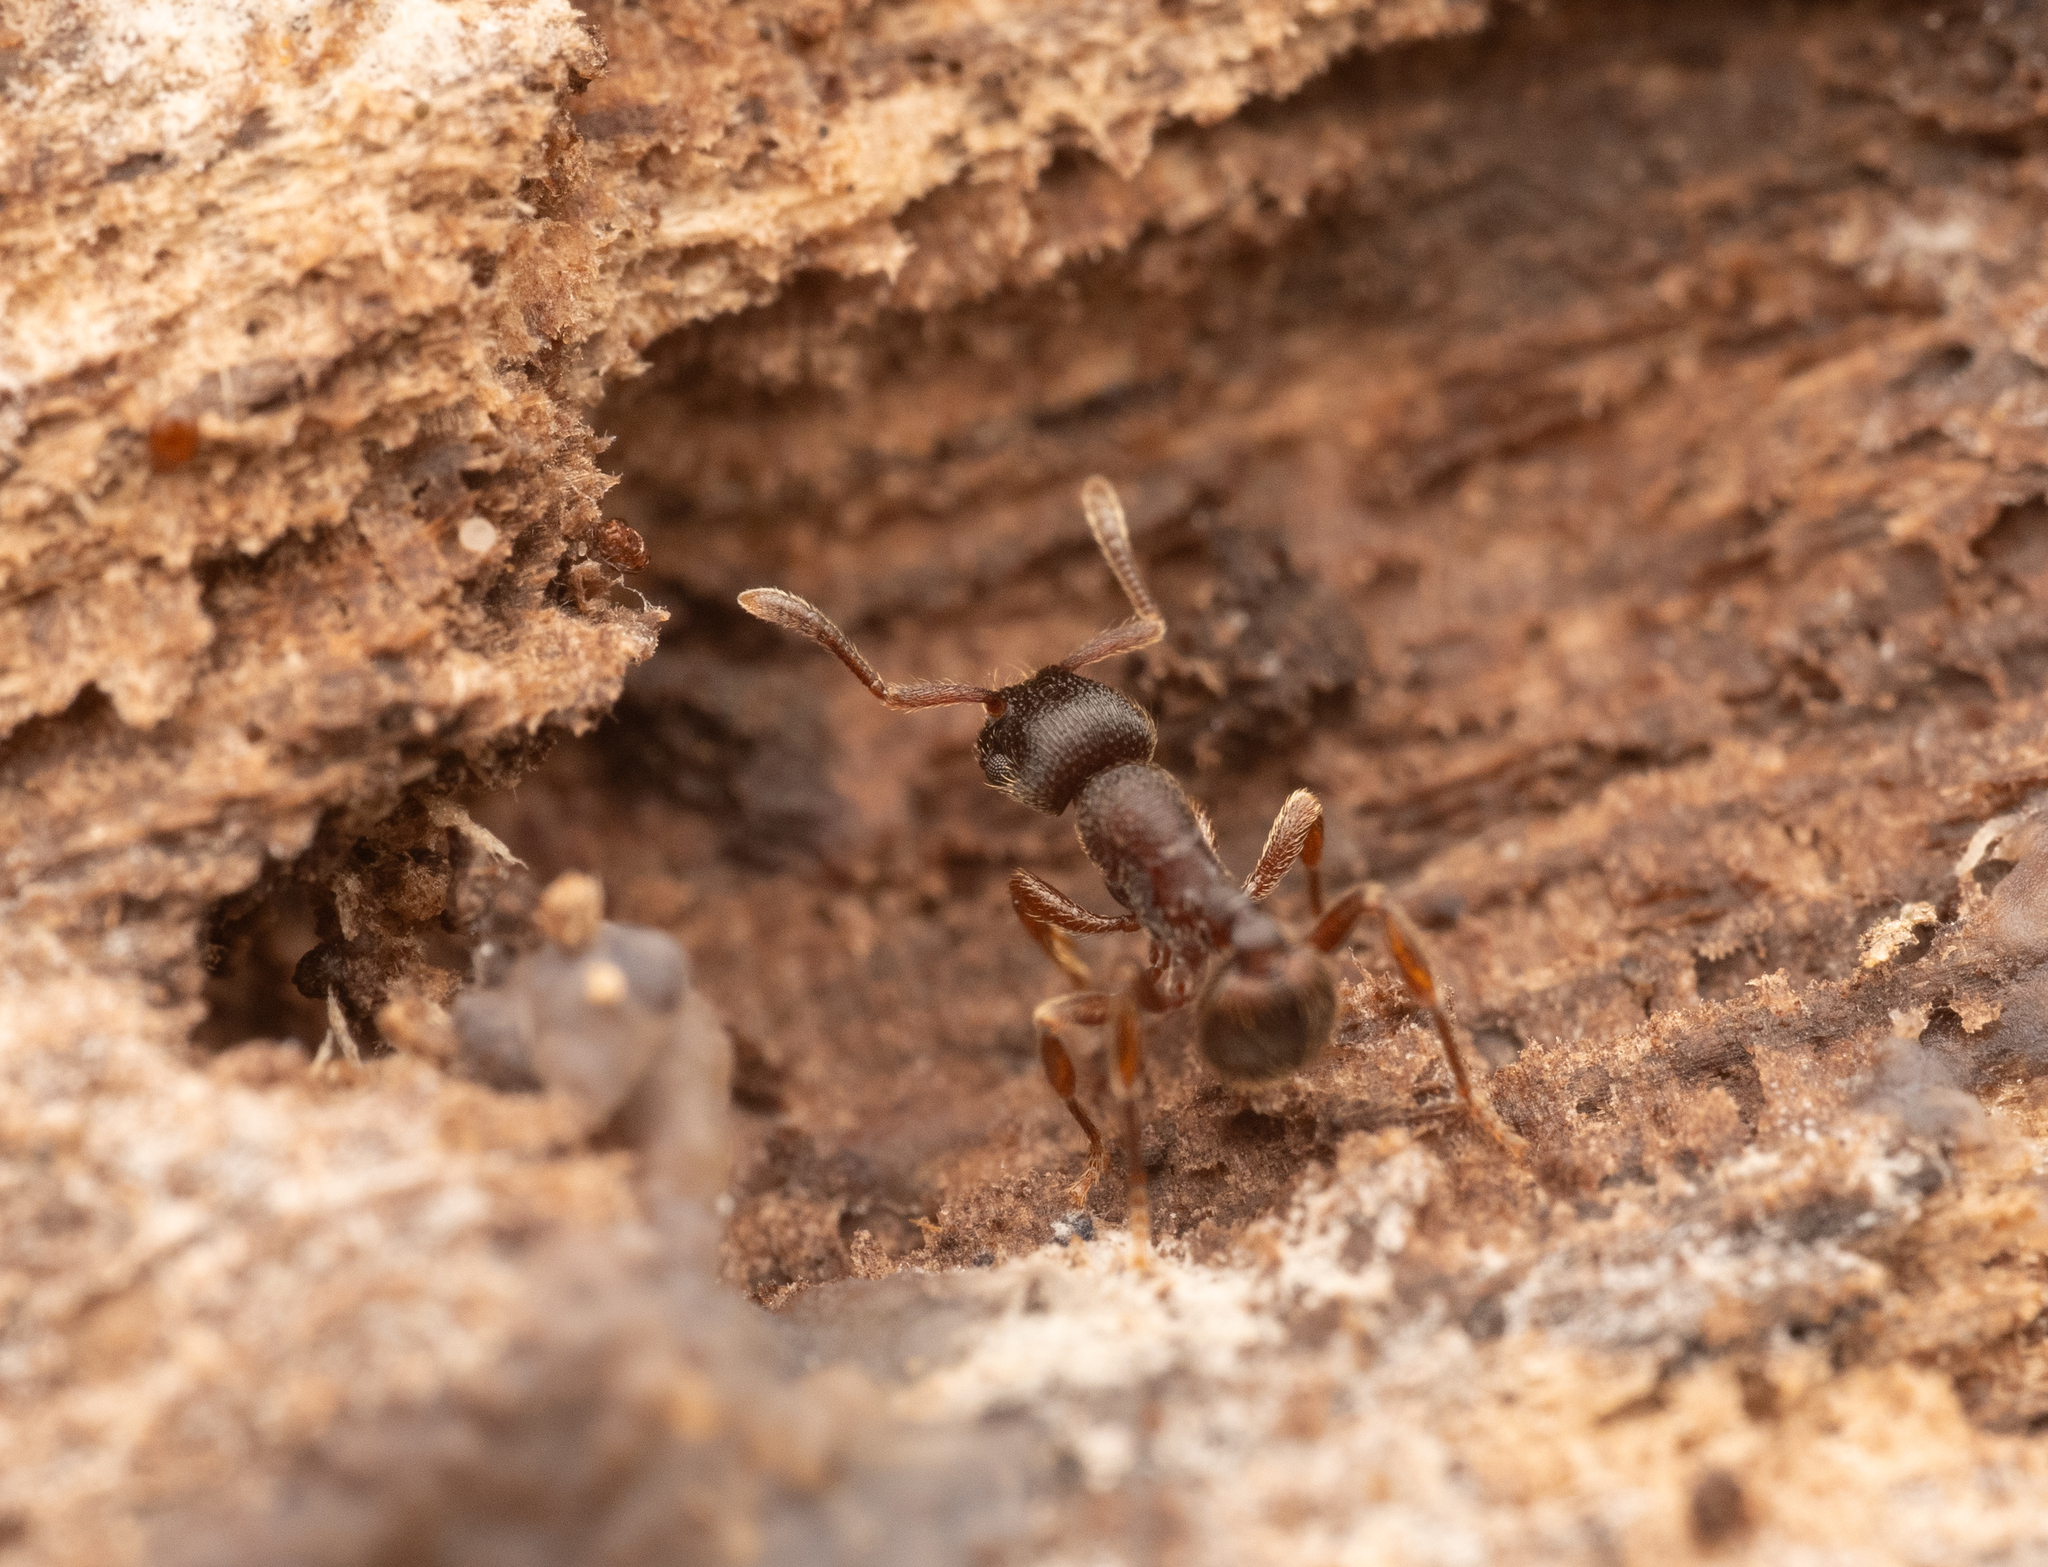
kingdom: Animalia
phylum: Arthropoda
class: Insecta
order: Hymenoptera
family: Formicidae
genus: Hylomyrma
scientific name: Hylomyrma transversa
